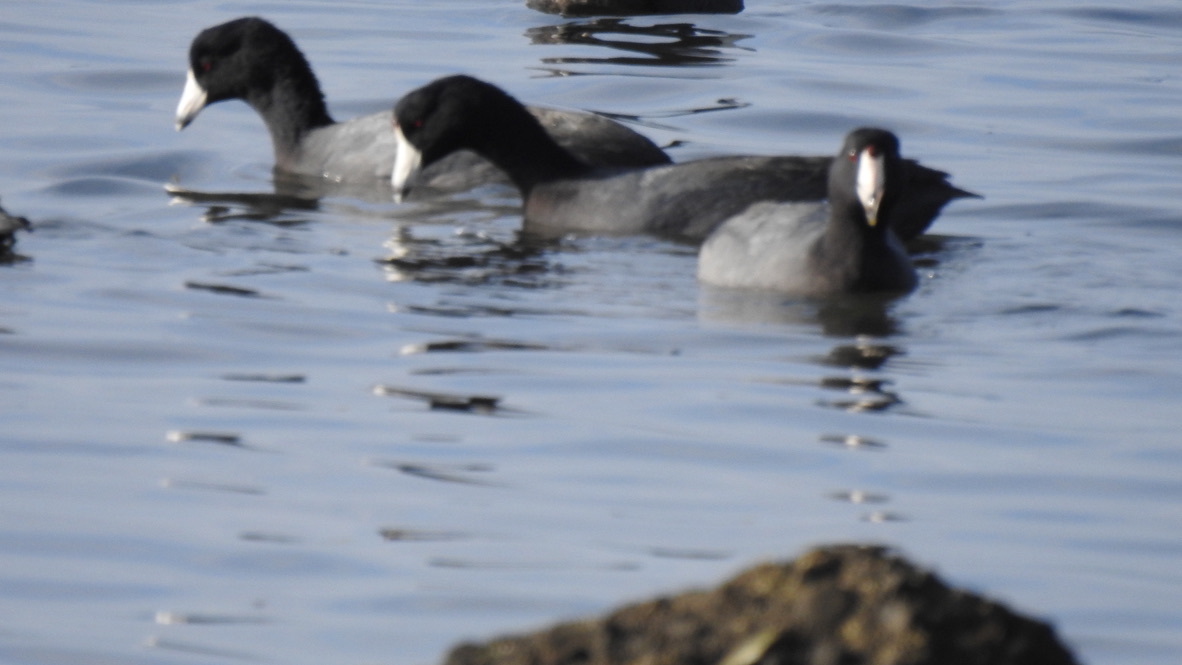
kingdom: Animalia
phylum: Chordata
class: Aves
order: Gruiformes
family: Rallidae
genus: Fulica
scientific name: Fulica americana
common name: American coot
